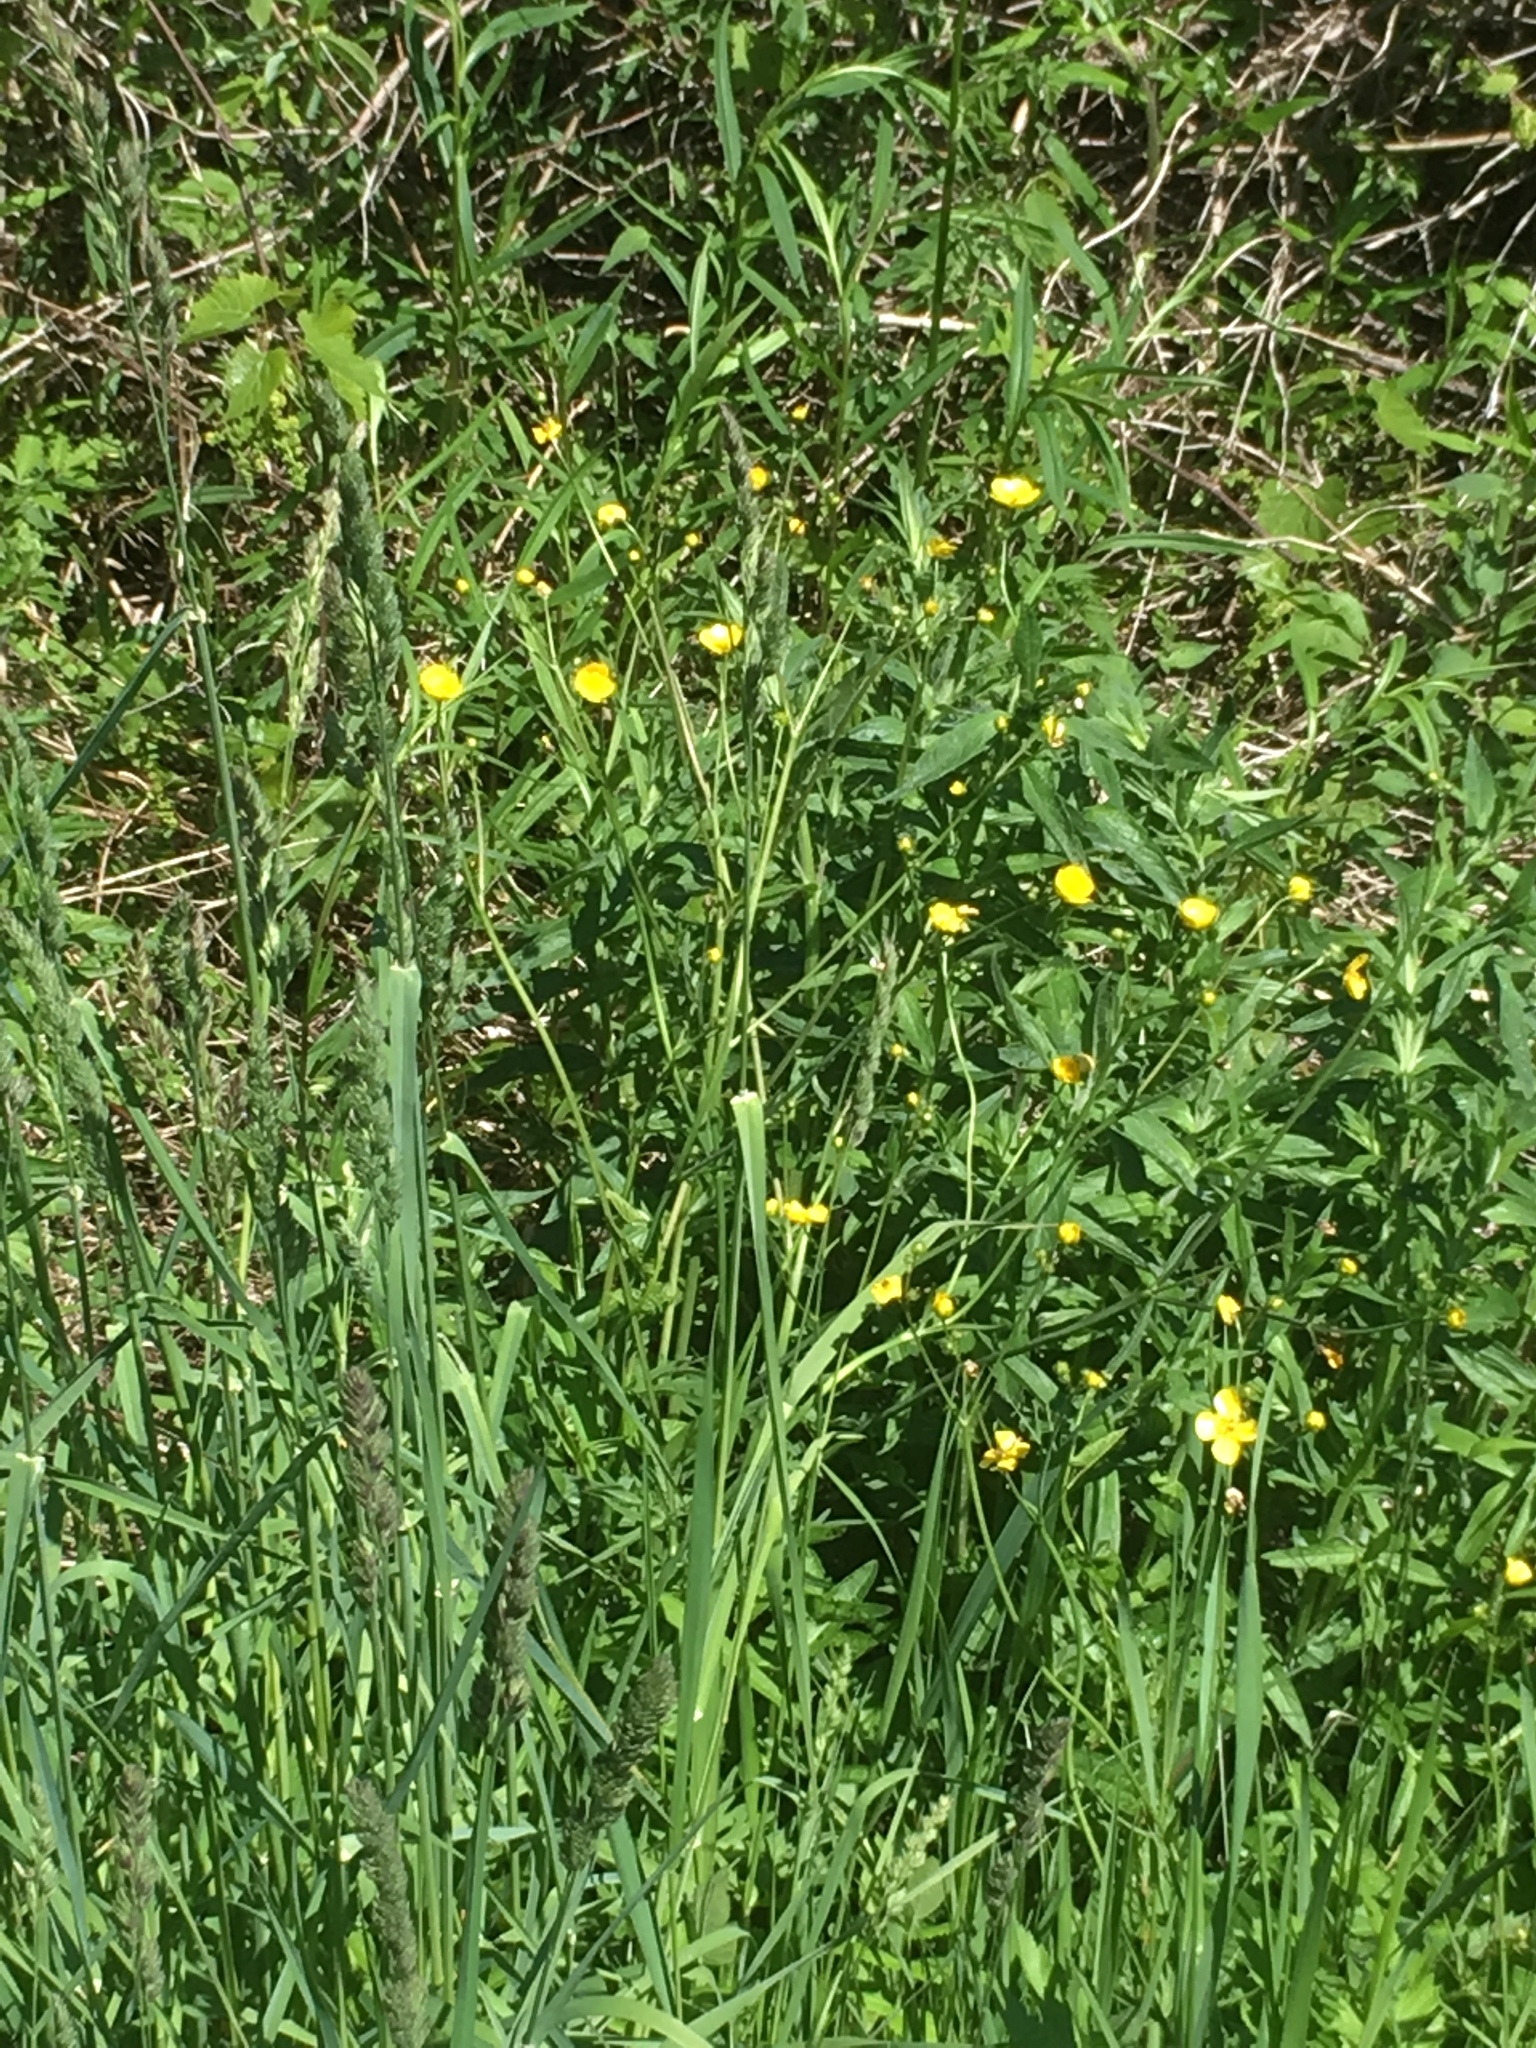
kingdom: Plantae
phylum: Tracheophyta
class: Magnoliopsida
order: Ranunculales
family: Ranunculaceae
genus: Ranunculus
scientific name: Ranunculus acris
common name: Meadow buttercup
